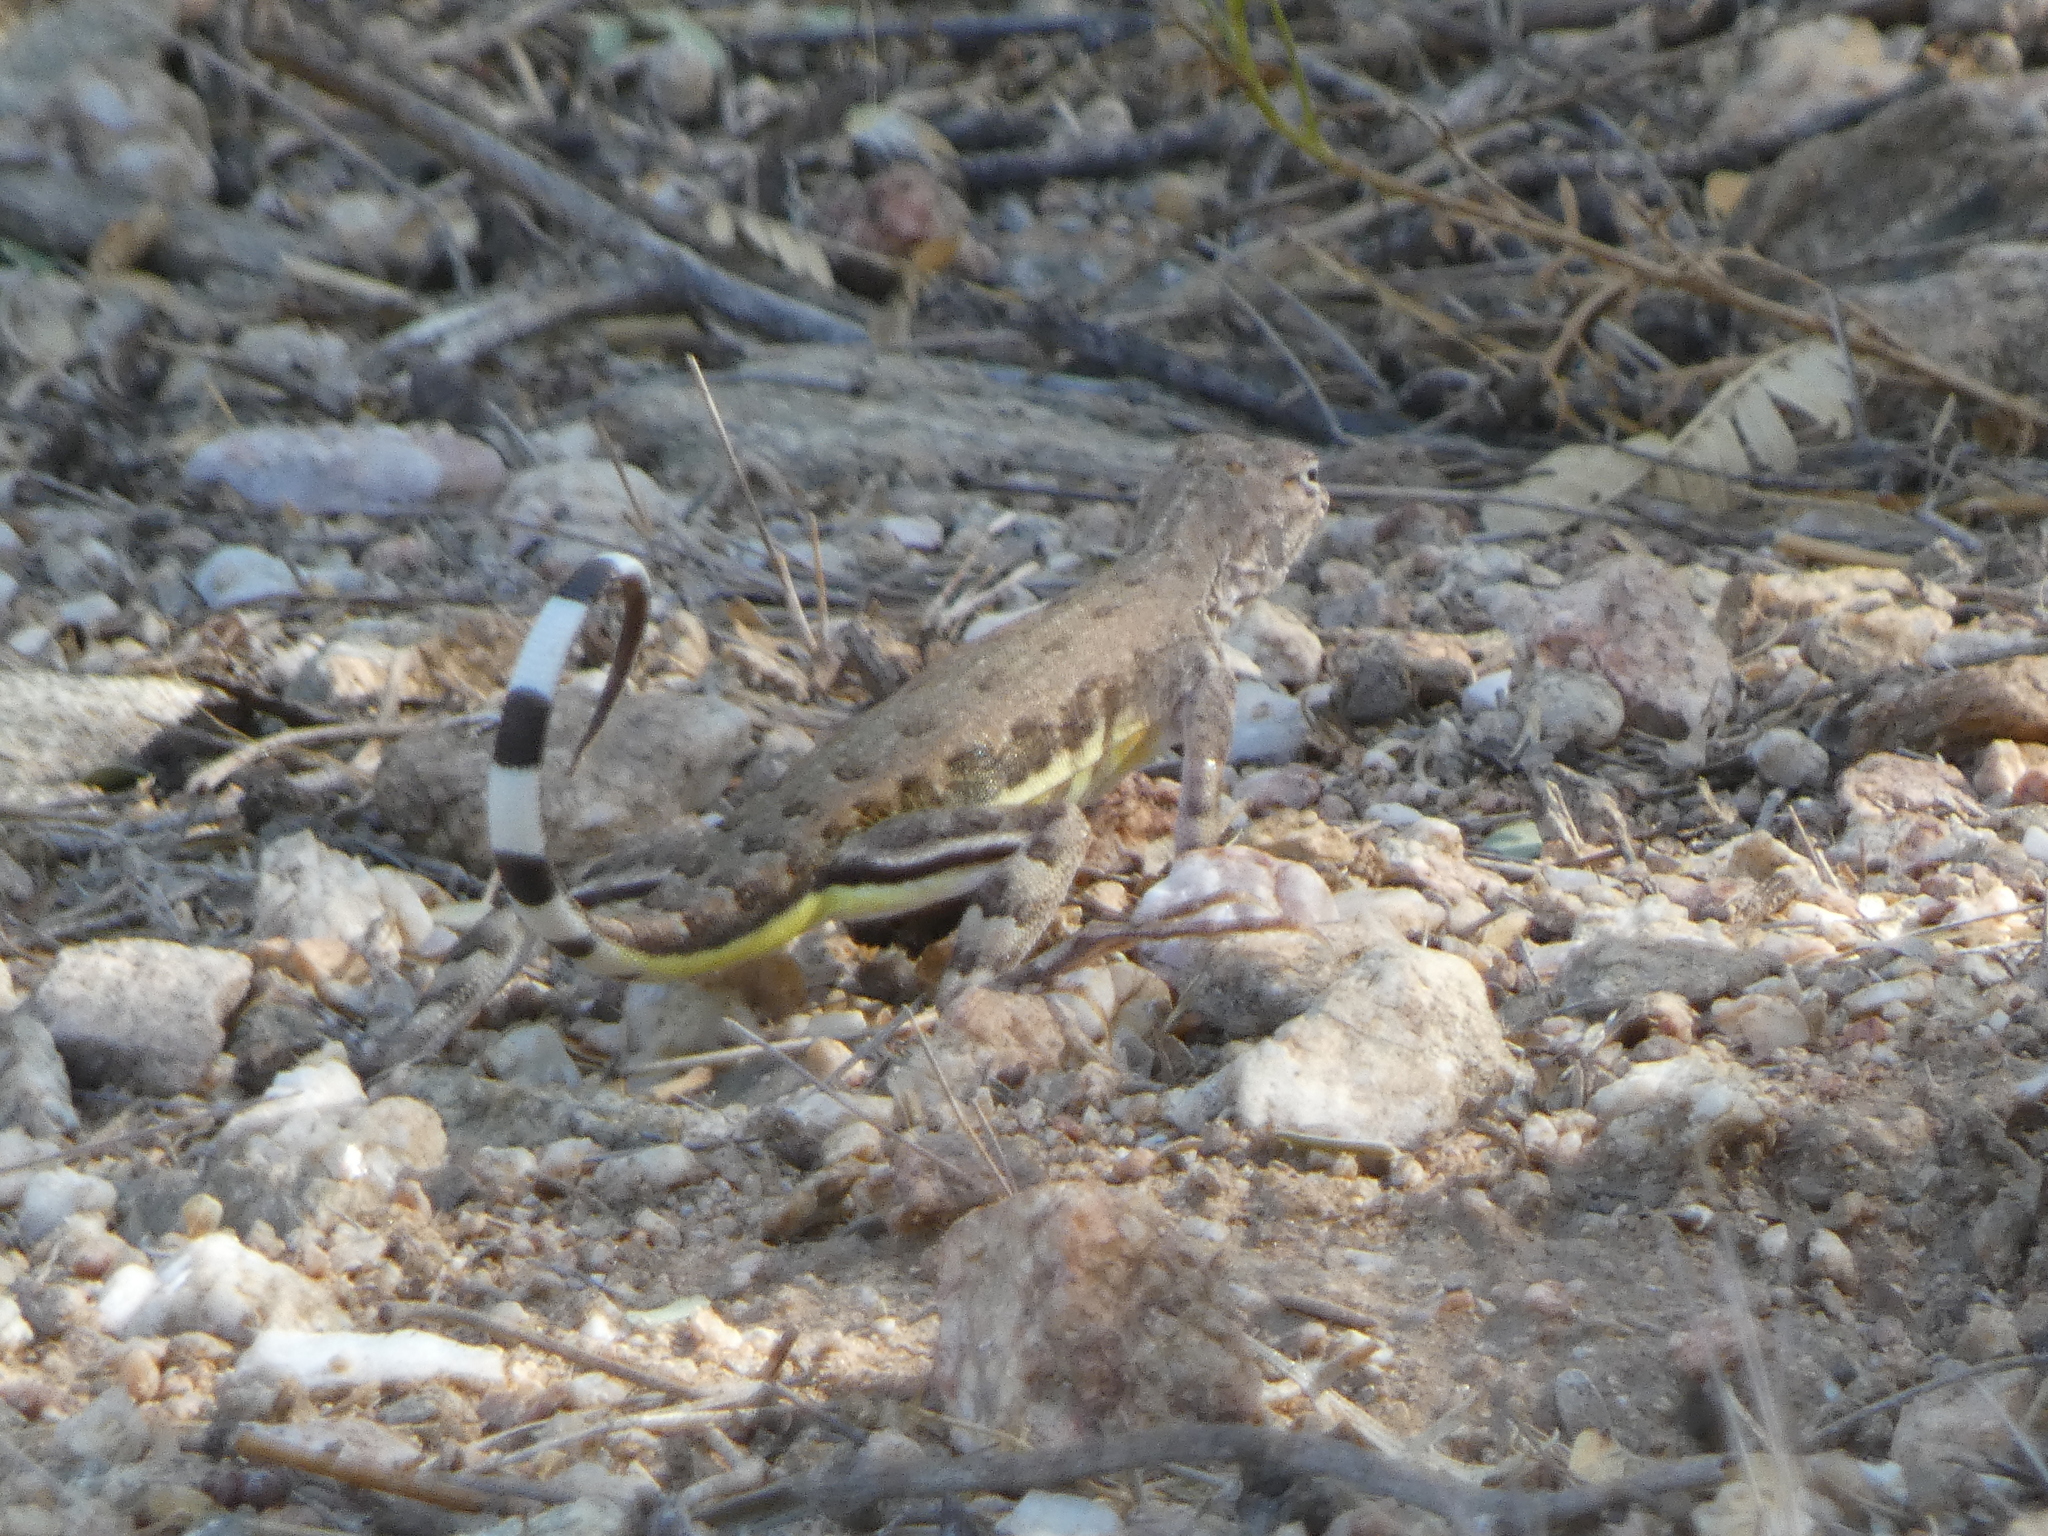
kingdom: Animalia
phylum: Chordata
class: Squamata
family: Phrynosomatidae
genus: Callisaurus
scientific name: Callisaurus draconoides
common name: Zebra-tailed lizard
